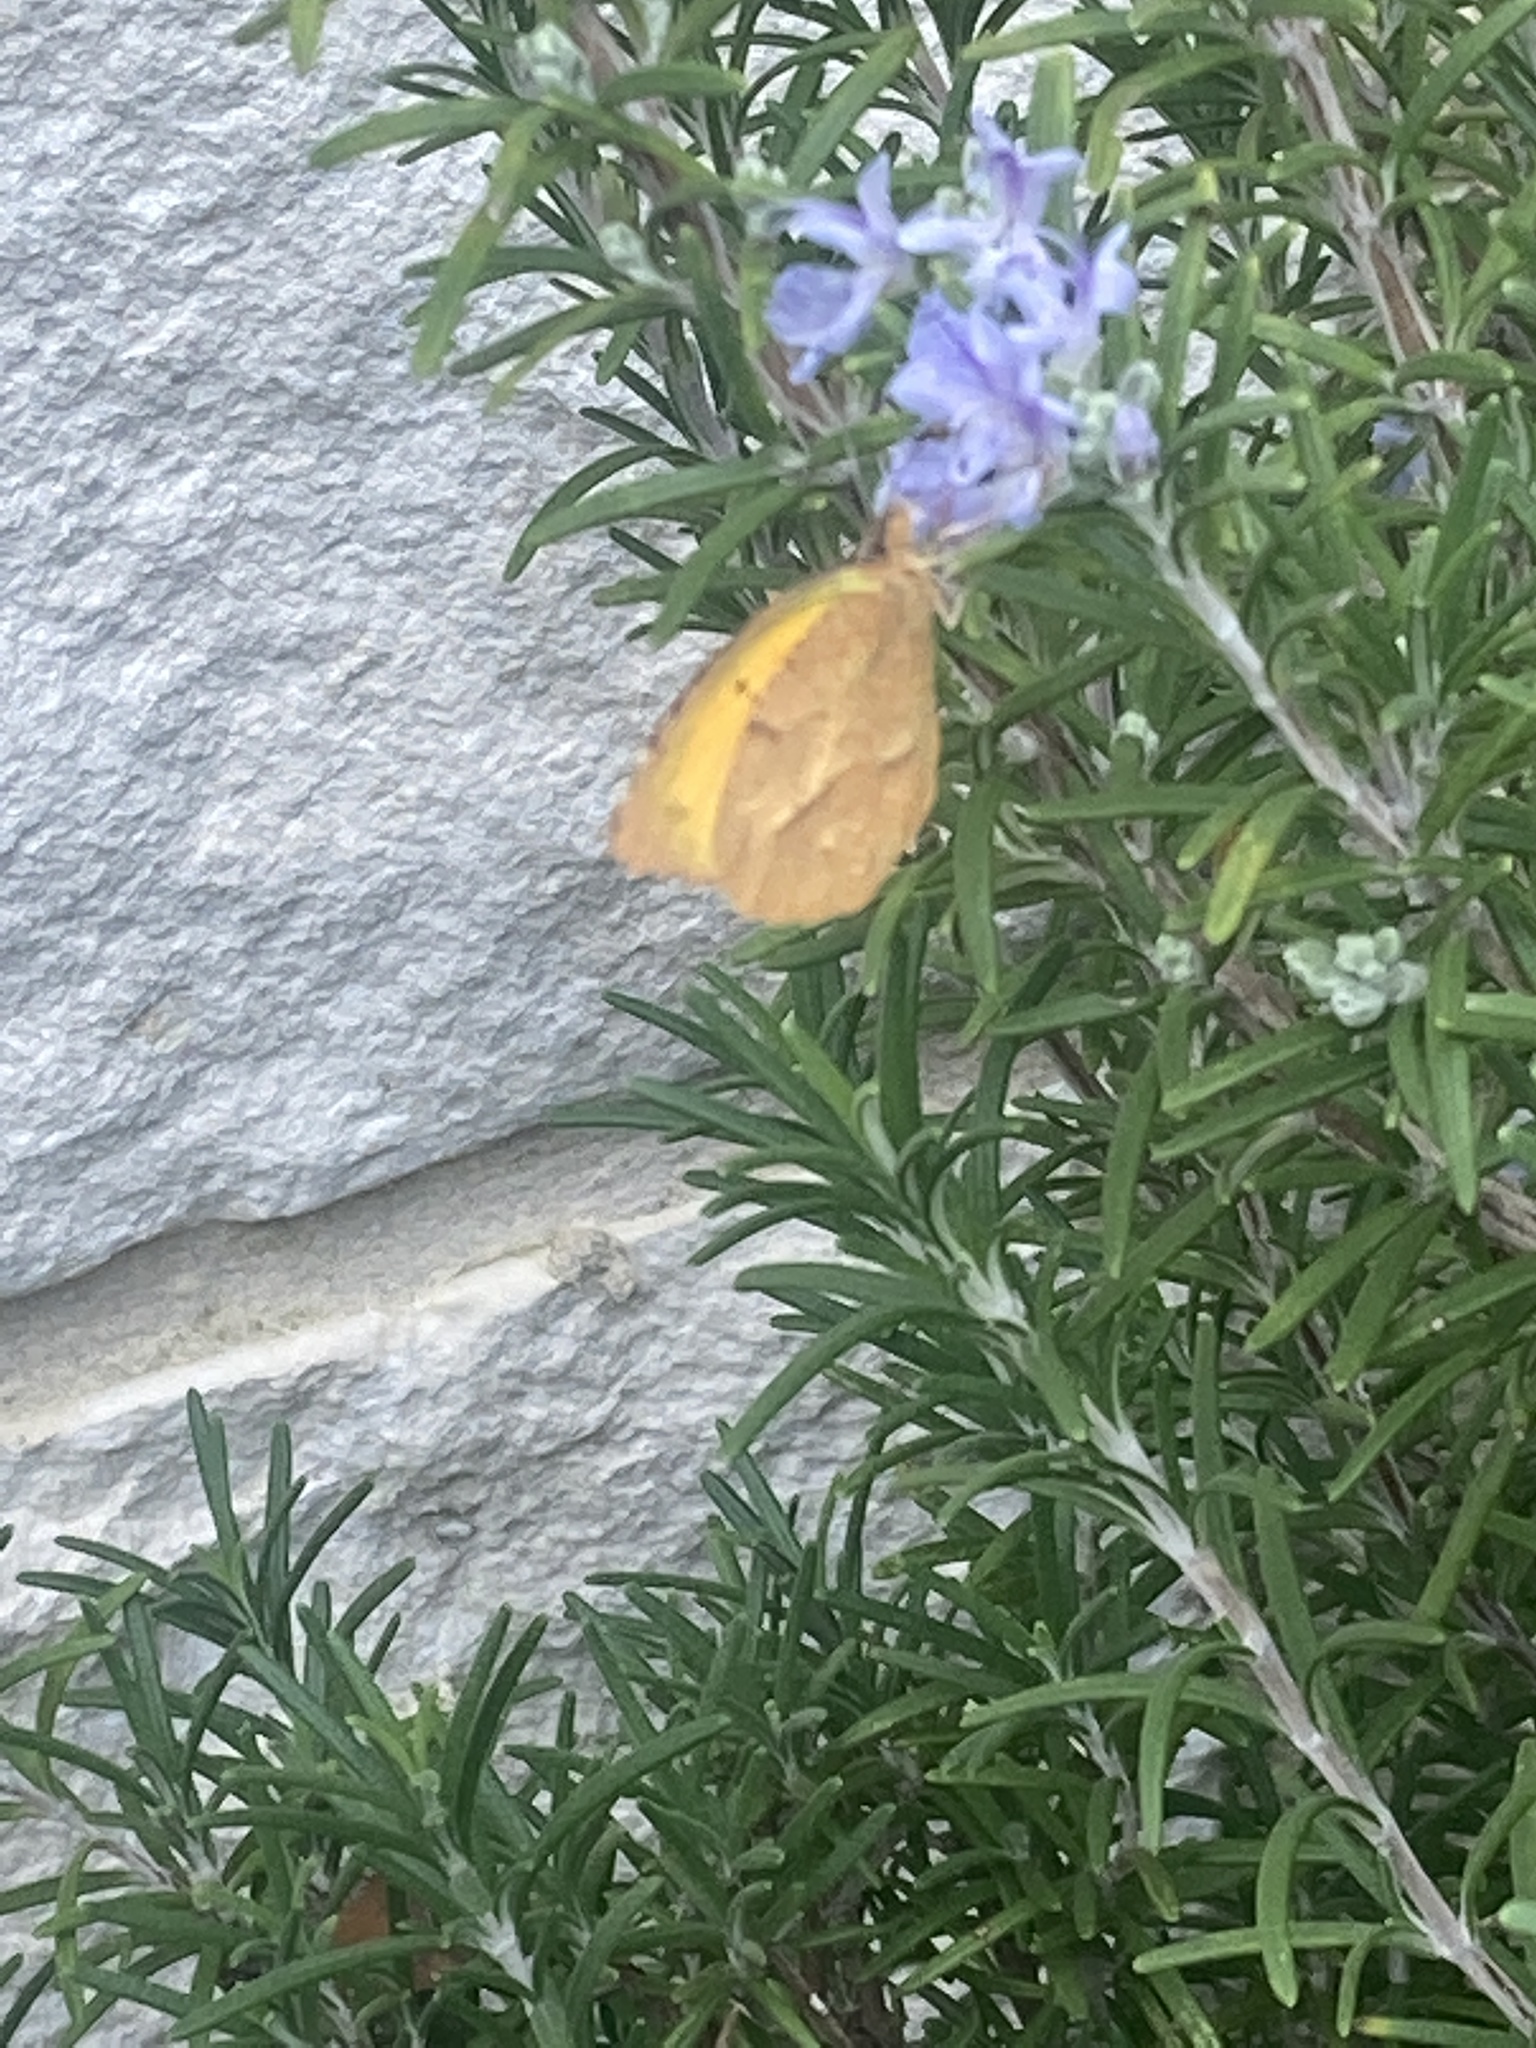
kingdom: Animalia
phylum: Arthropoda
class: Insecta
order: Lepidoptera
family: Pieridae
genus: Abaeis
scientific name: Abaeis nicippe
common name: Sleepy orange
